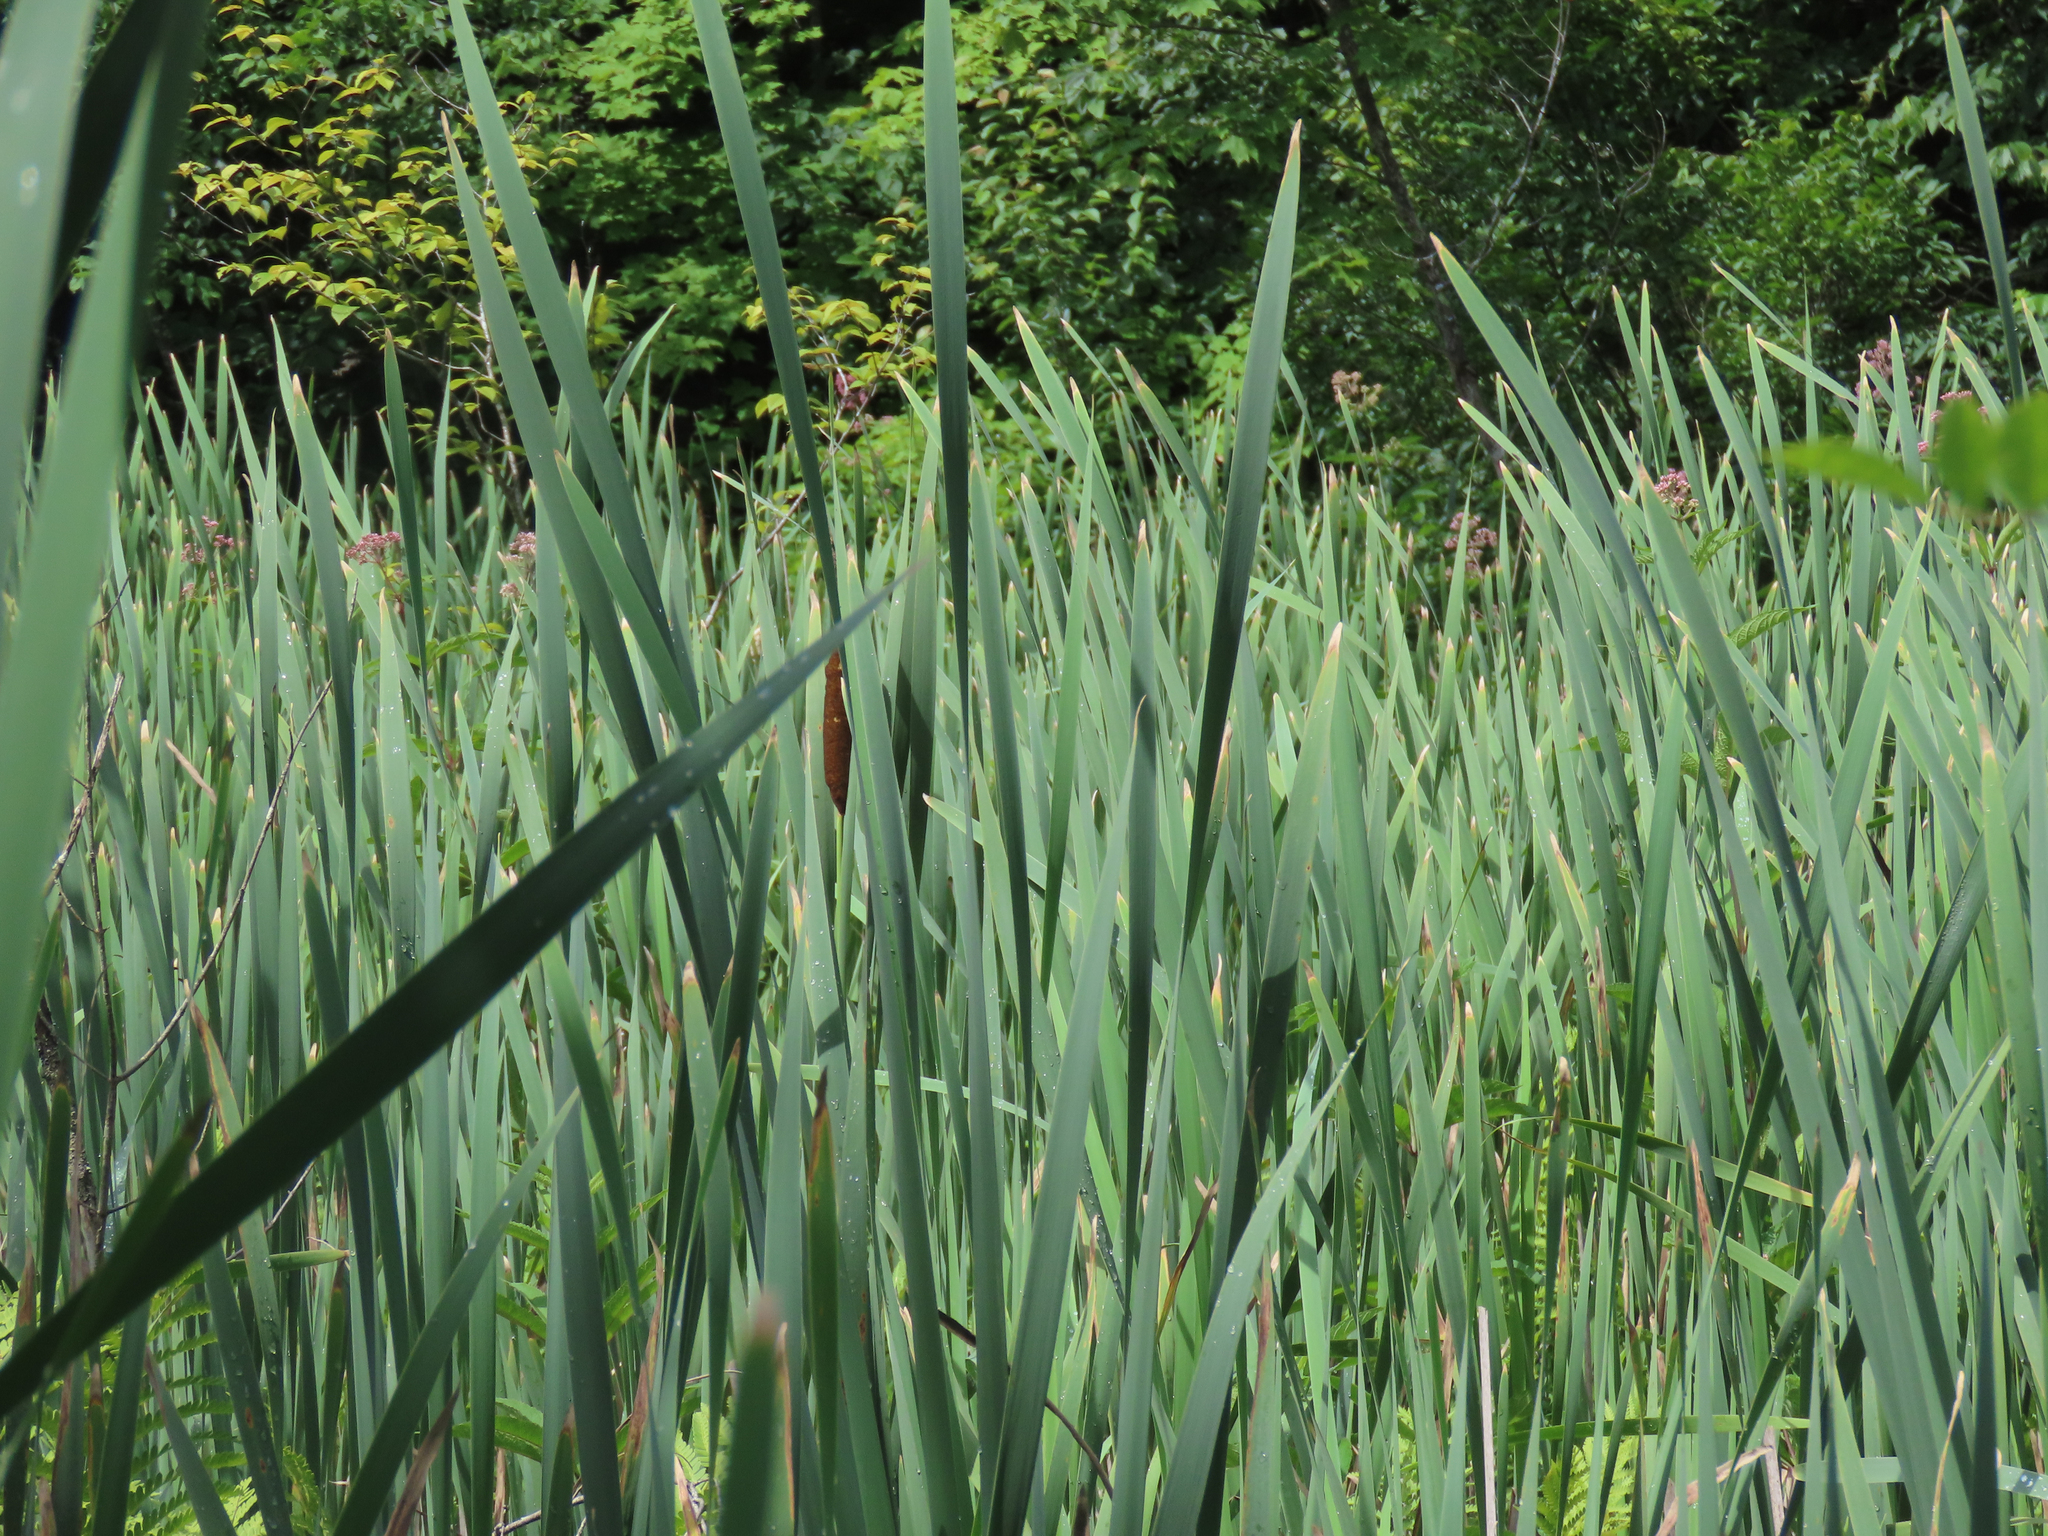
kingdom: Plantae
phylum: Tracheophyta
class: Liliopsida
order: Poales
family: Typhaceae
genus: Typha
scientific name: Typha latifolia
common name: Broadleaf cattail
